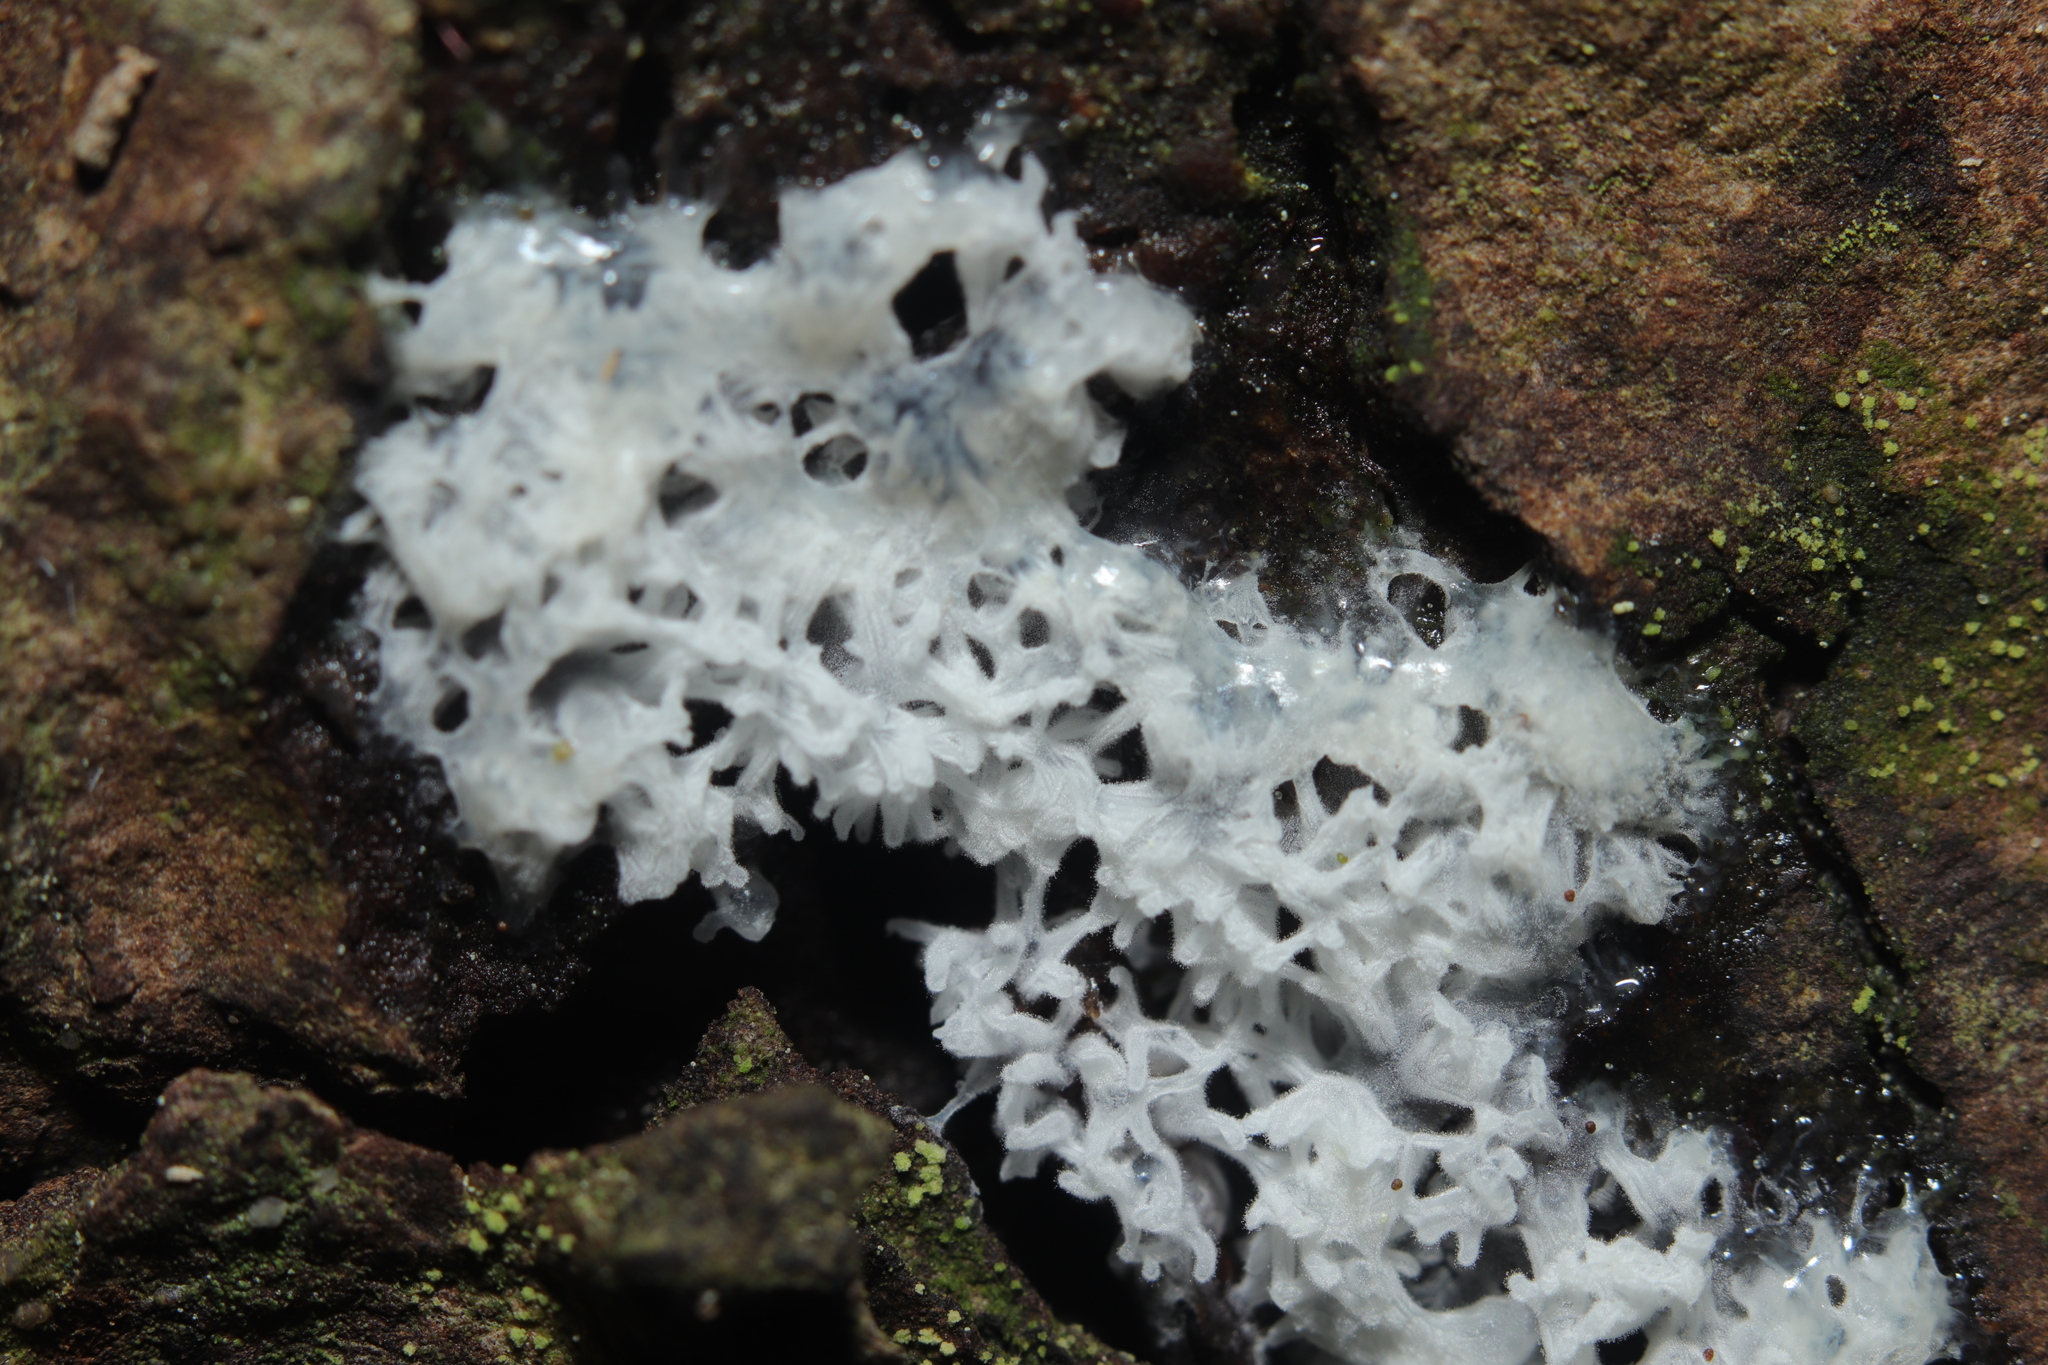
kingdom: Protozoa
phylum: Mycetozoa
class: Protosteliomycetes
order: Ceratiomyxales
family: Ceratiomyxaceae
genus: Ceratiomyxa
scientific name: Ceratiomyxa fruticulosa
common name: Honeycomb coral slime mold
